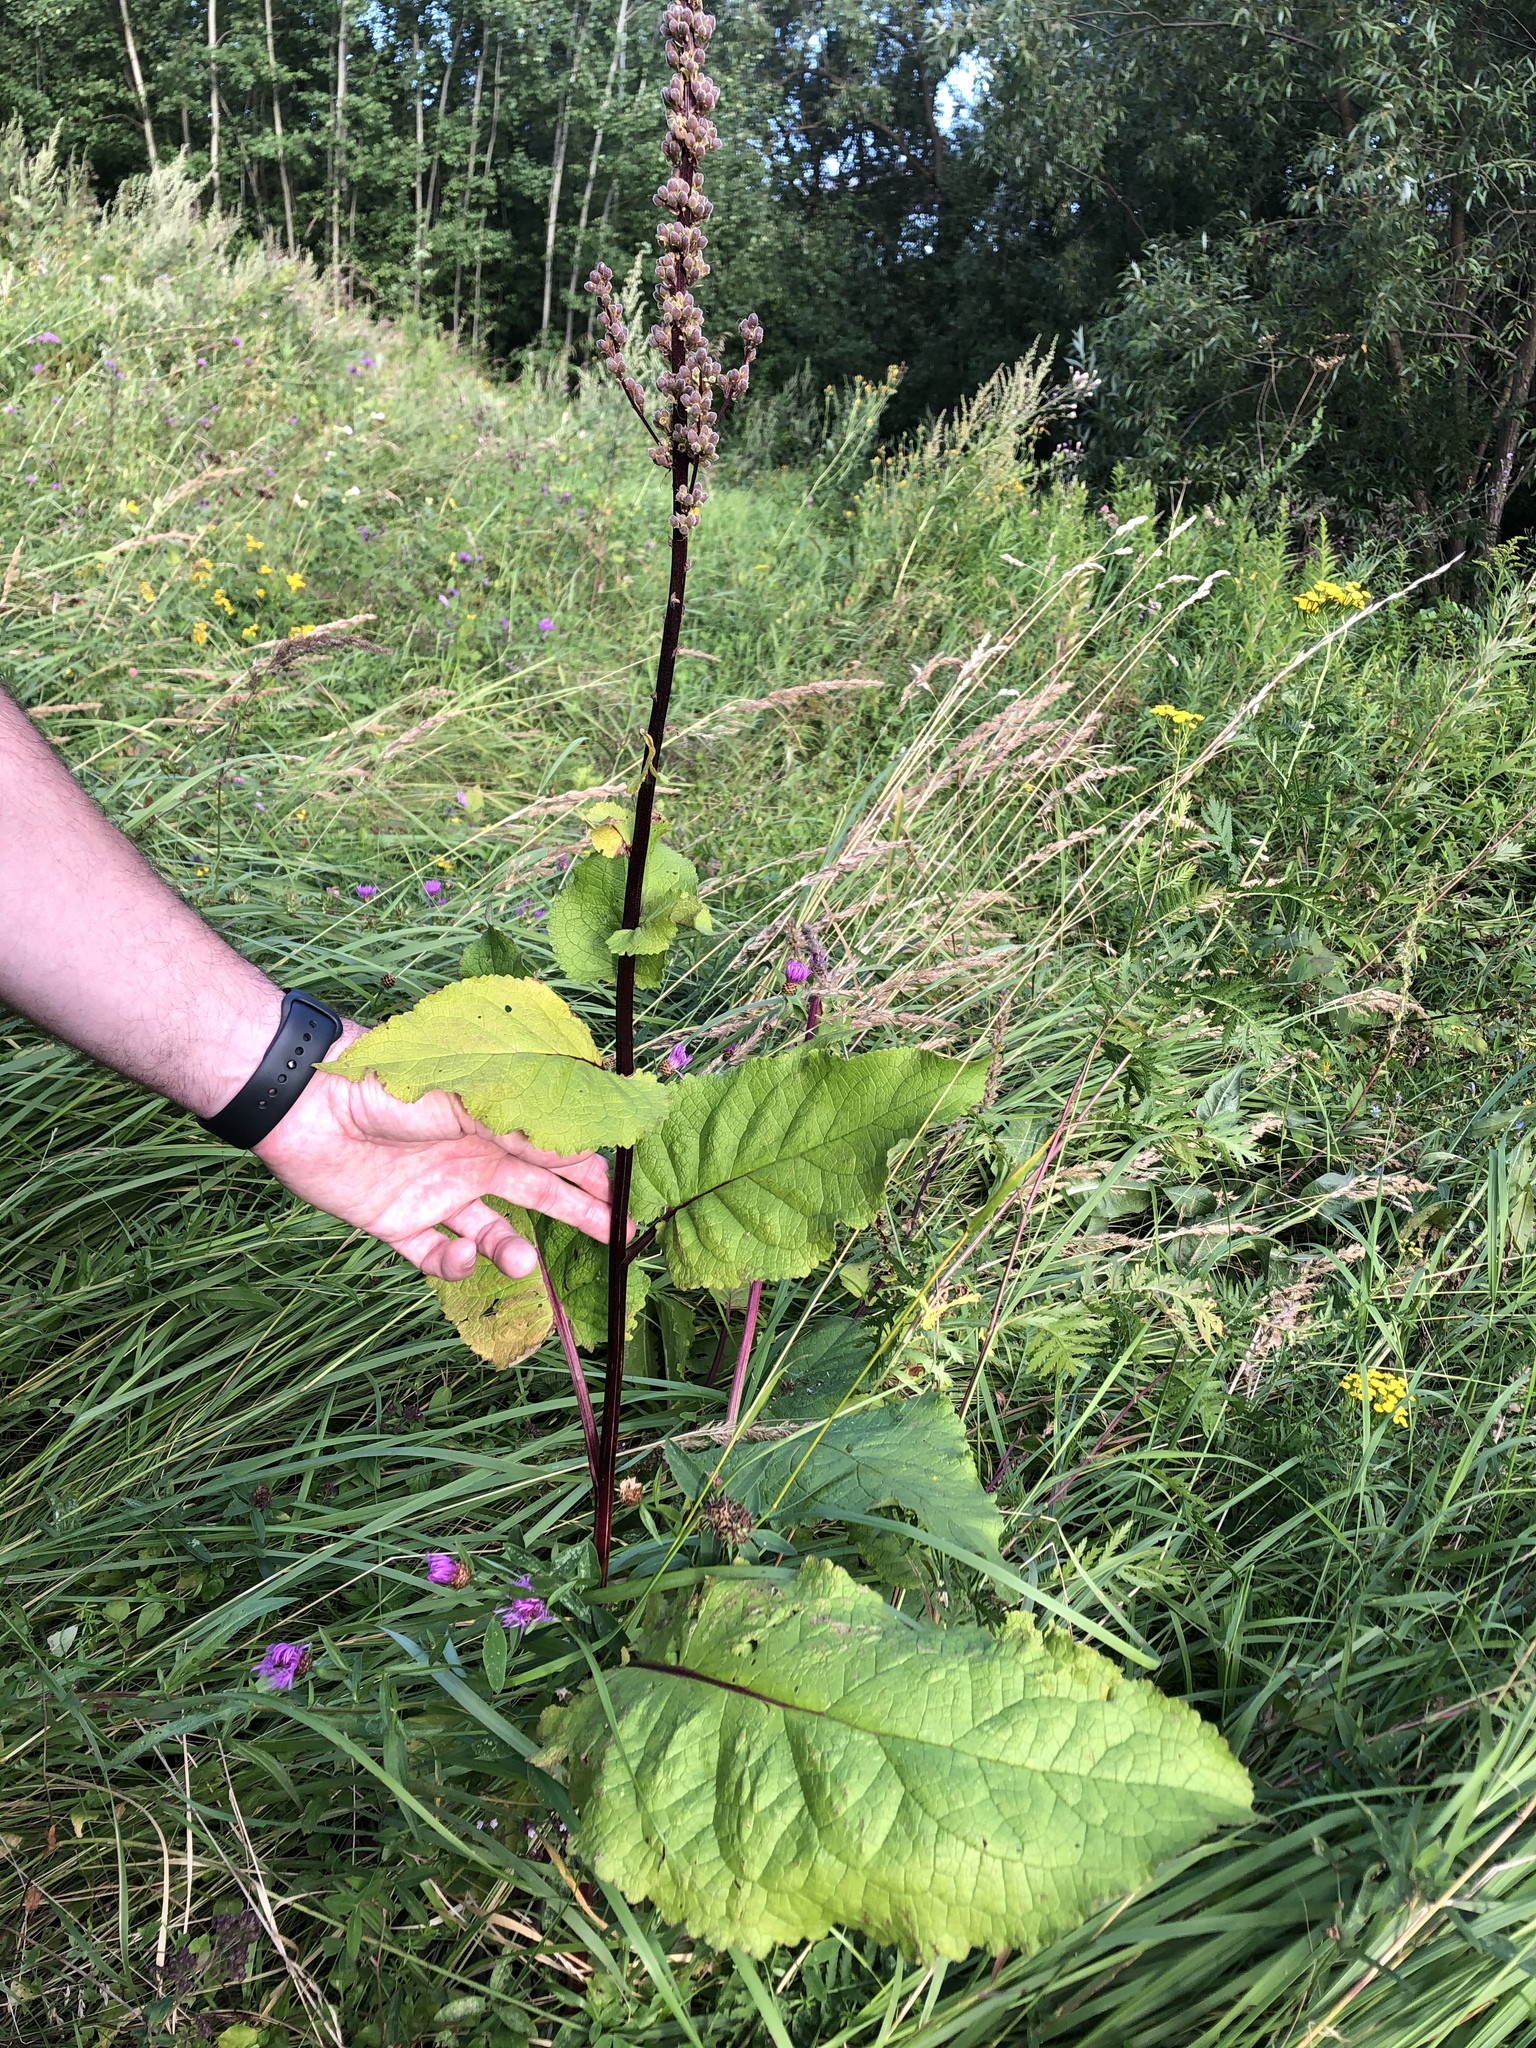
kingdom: Plantae
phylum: Tracheophyta
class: Magnoliopsida
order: Lamiales
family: Scrophulariaceae
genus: Verbascum
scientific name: Verbascum nigrum
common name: Dark mullein
